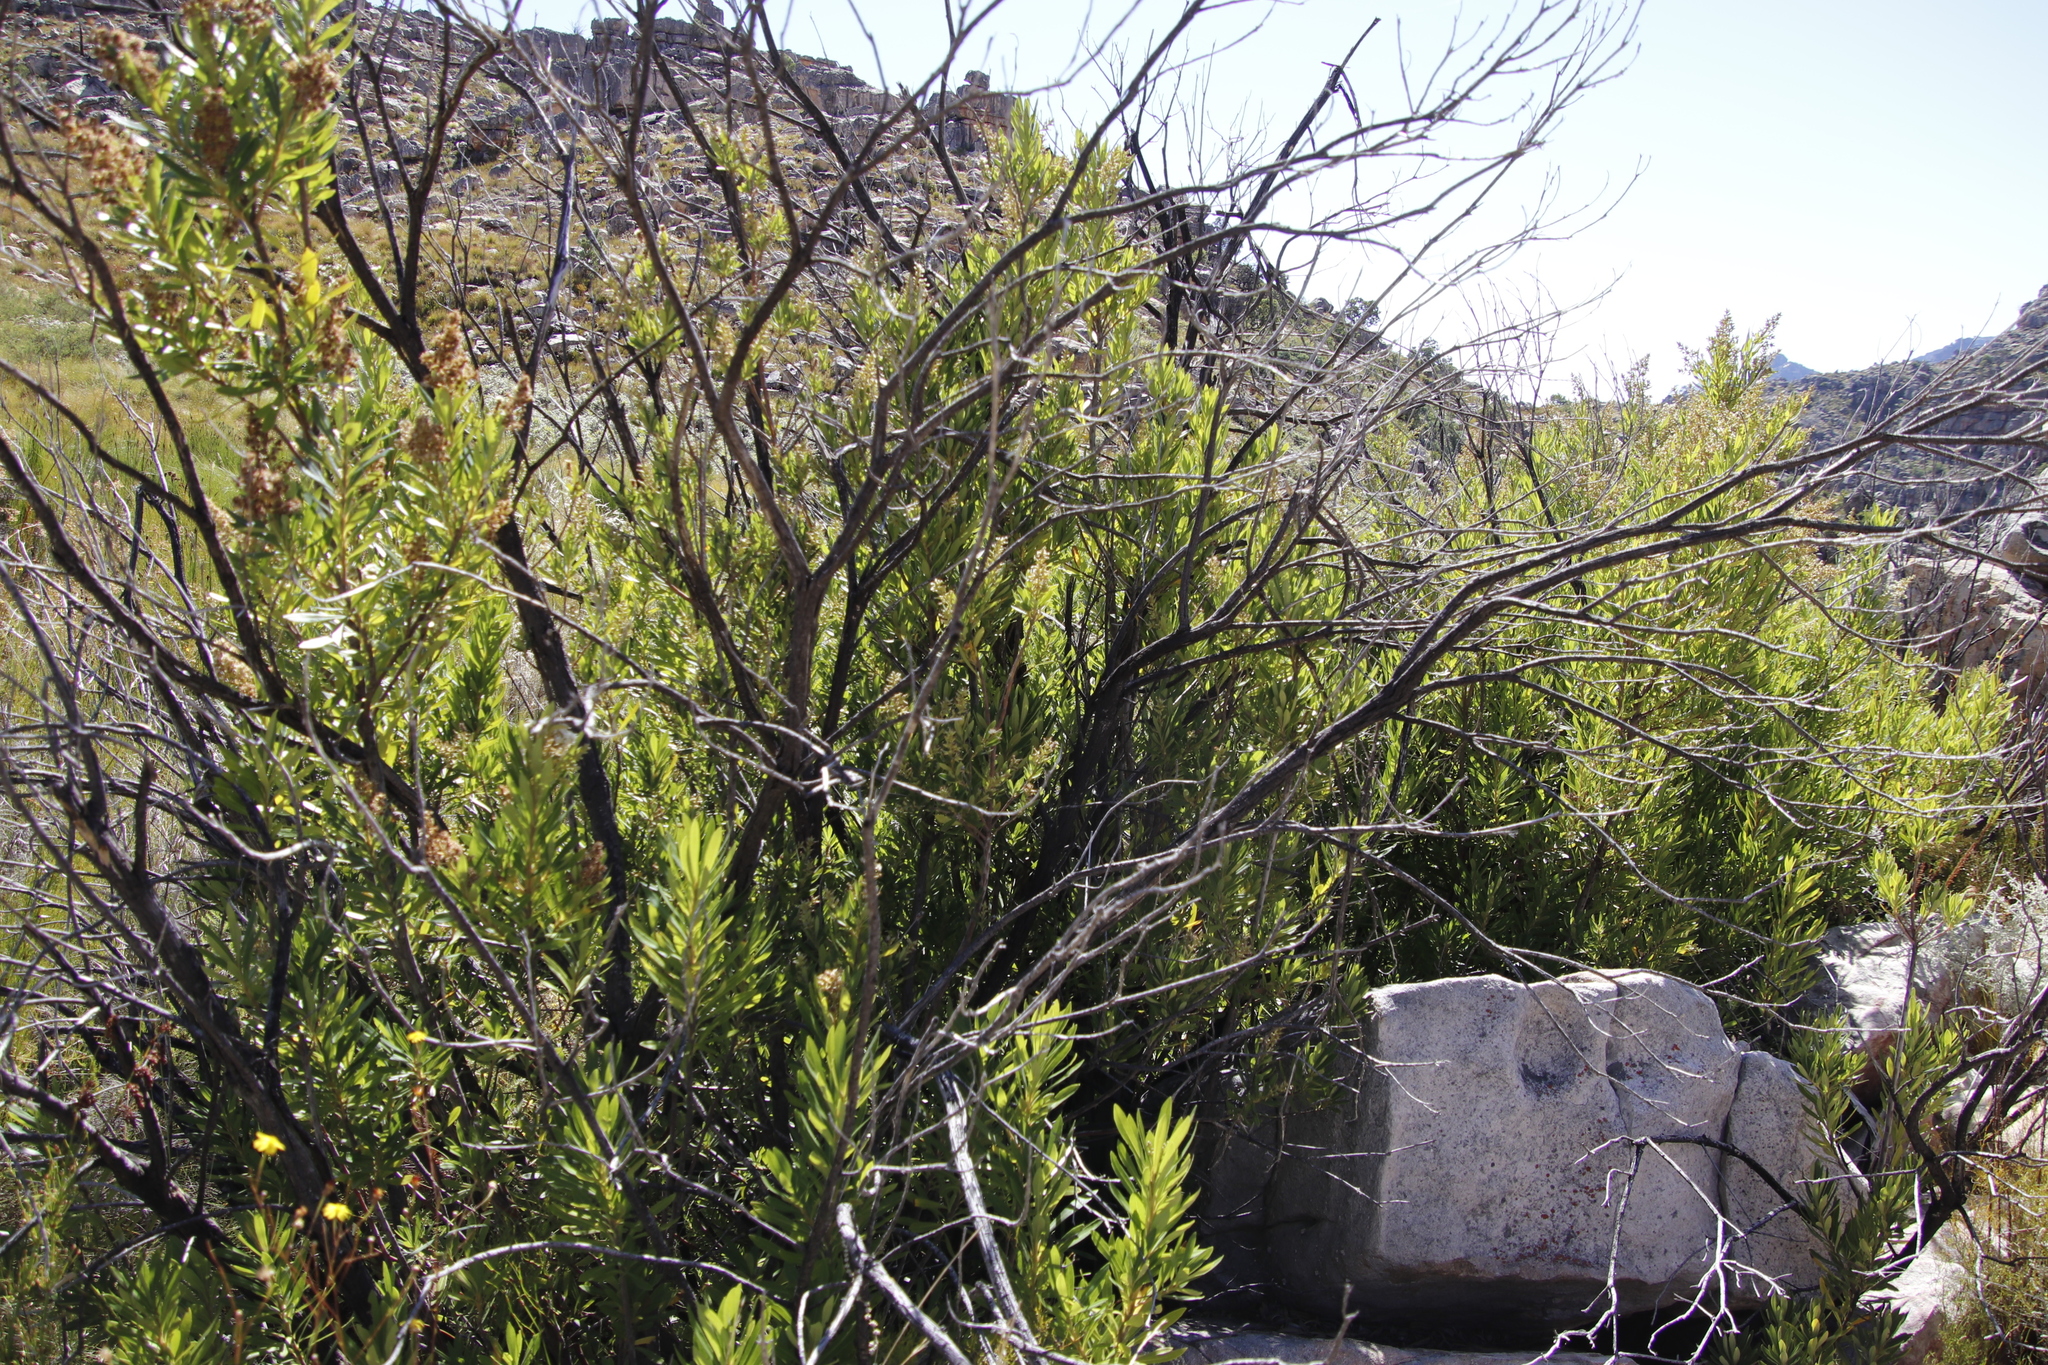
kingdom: Plantae
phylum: Tracheophyta
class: Magnoliopsida
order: Asterales
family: Asteraceae
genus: Brachylaena
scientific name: Brachylaena neriifolia
